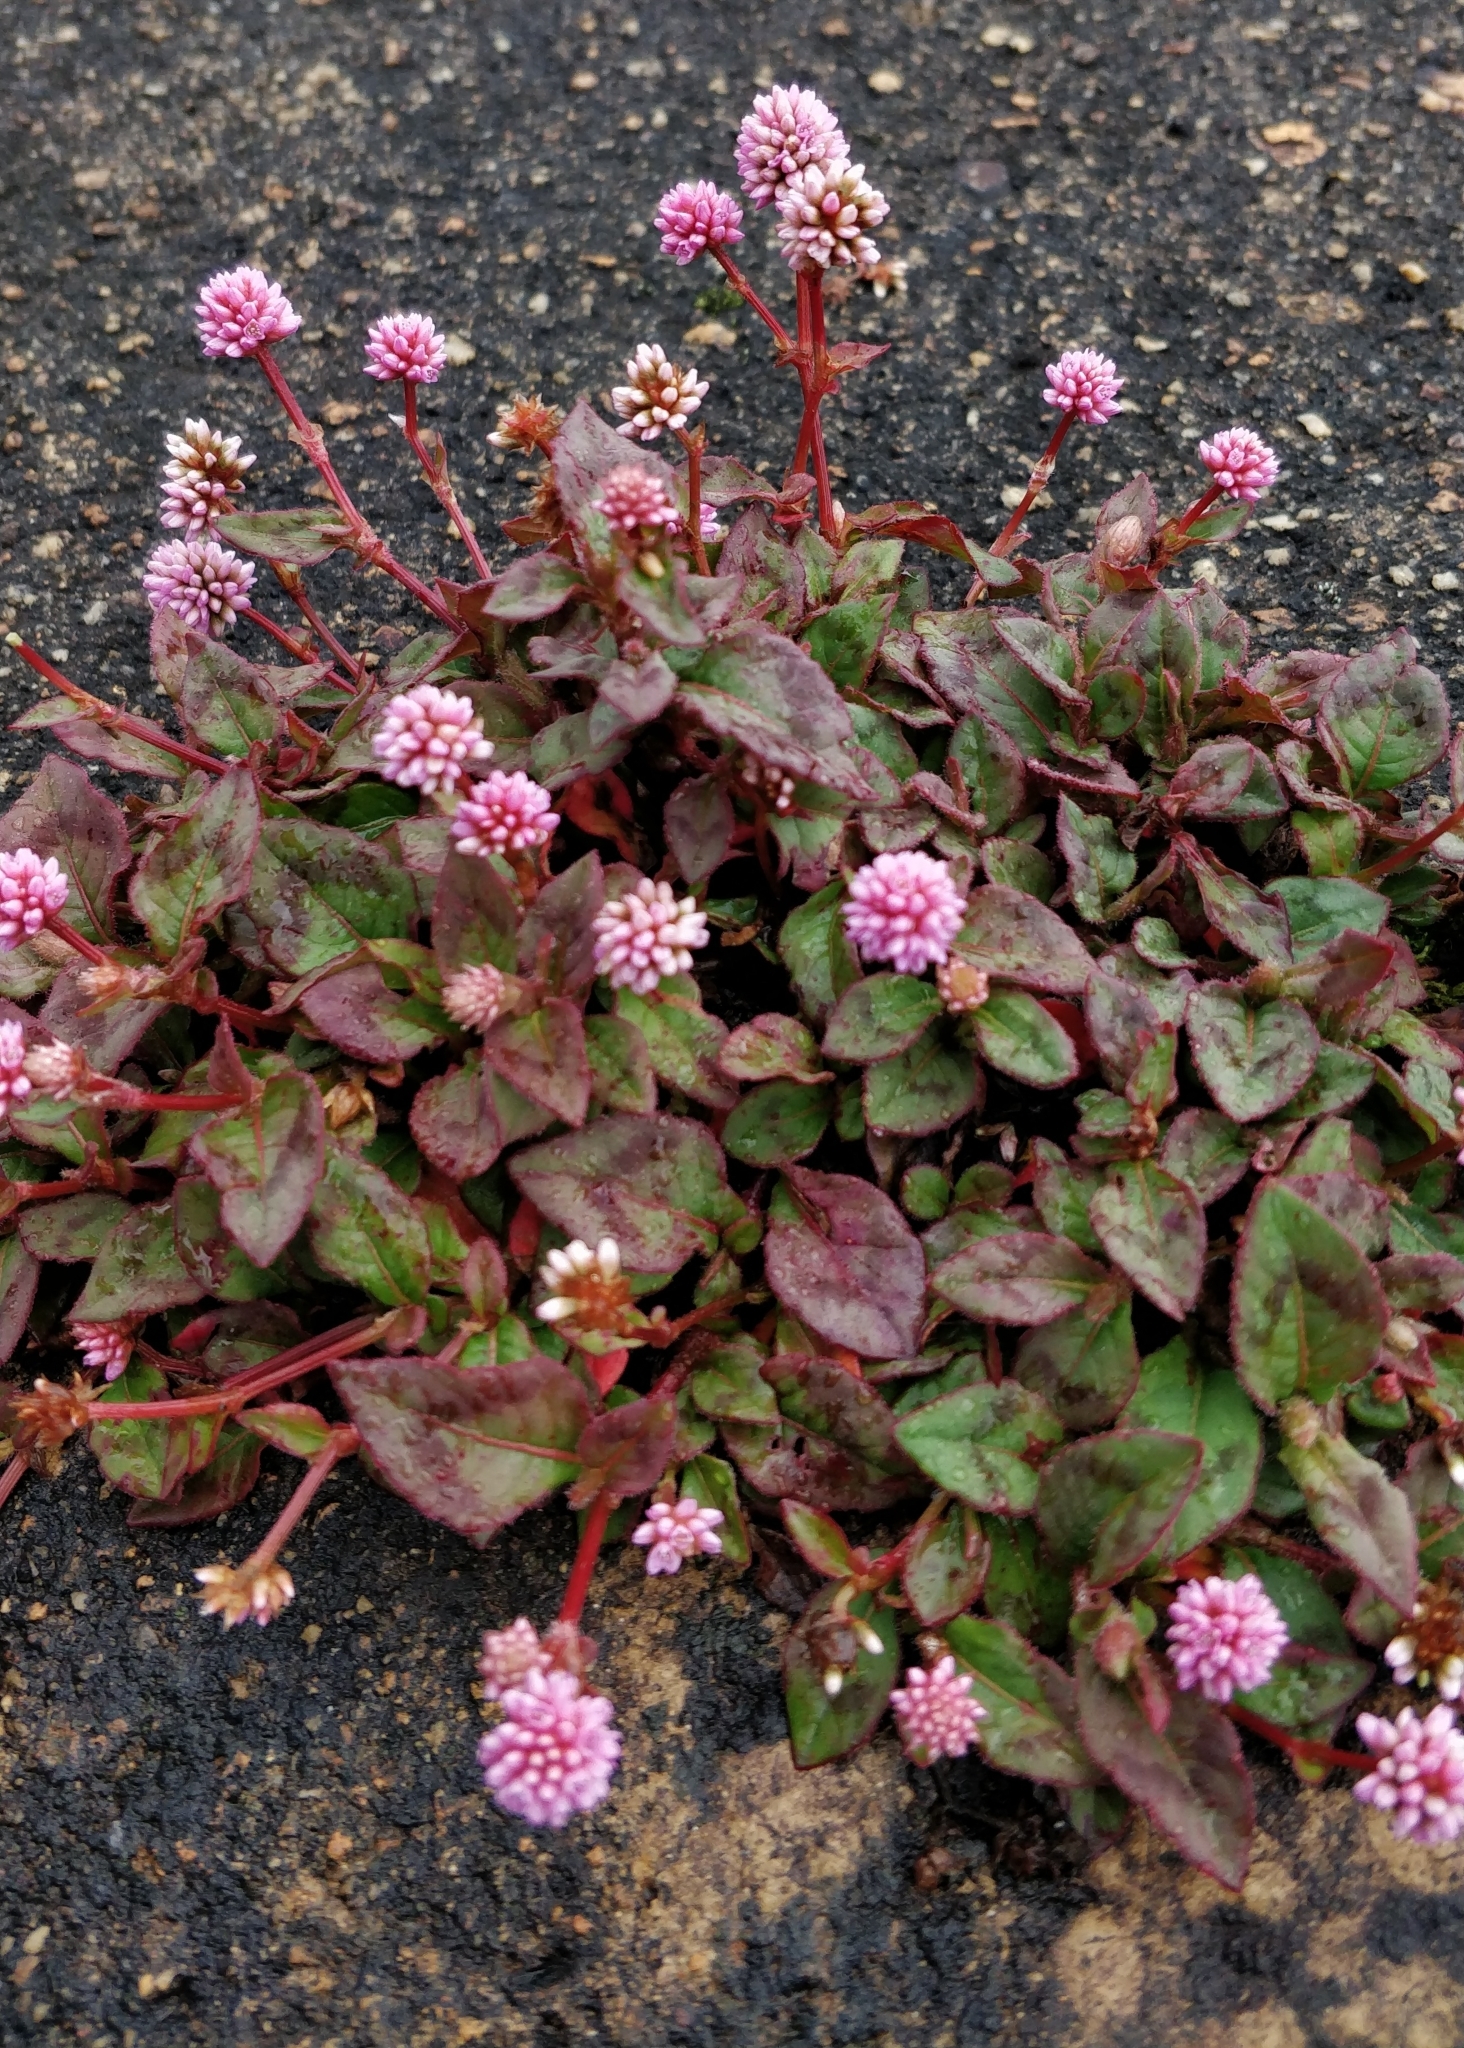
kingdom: Plantae
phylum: Tracheophyta
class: Magnoliopsida
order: Caryophyllales
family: Polygonaceae
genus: Persicaria
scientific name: Persicaria capitata
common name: Pinkhead smartweed
